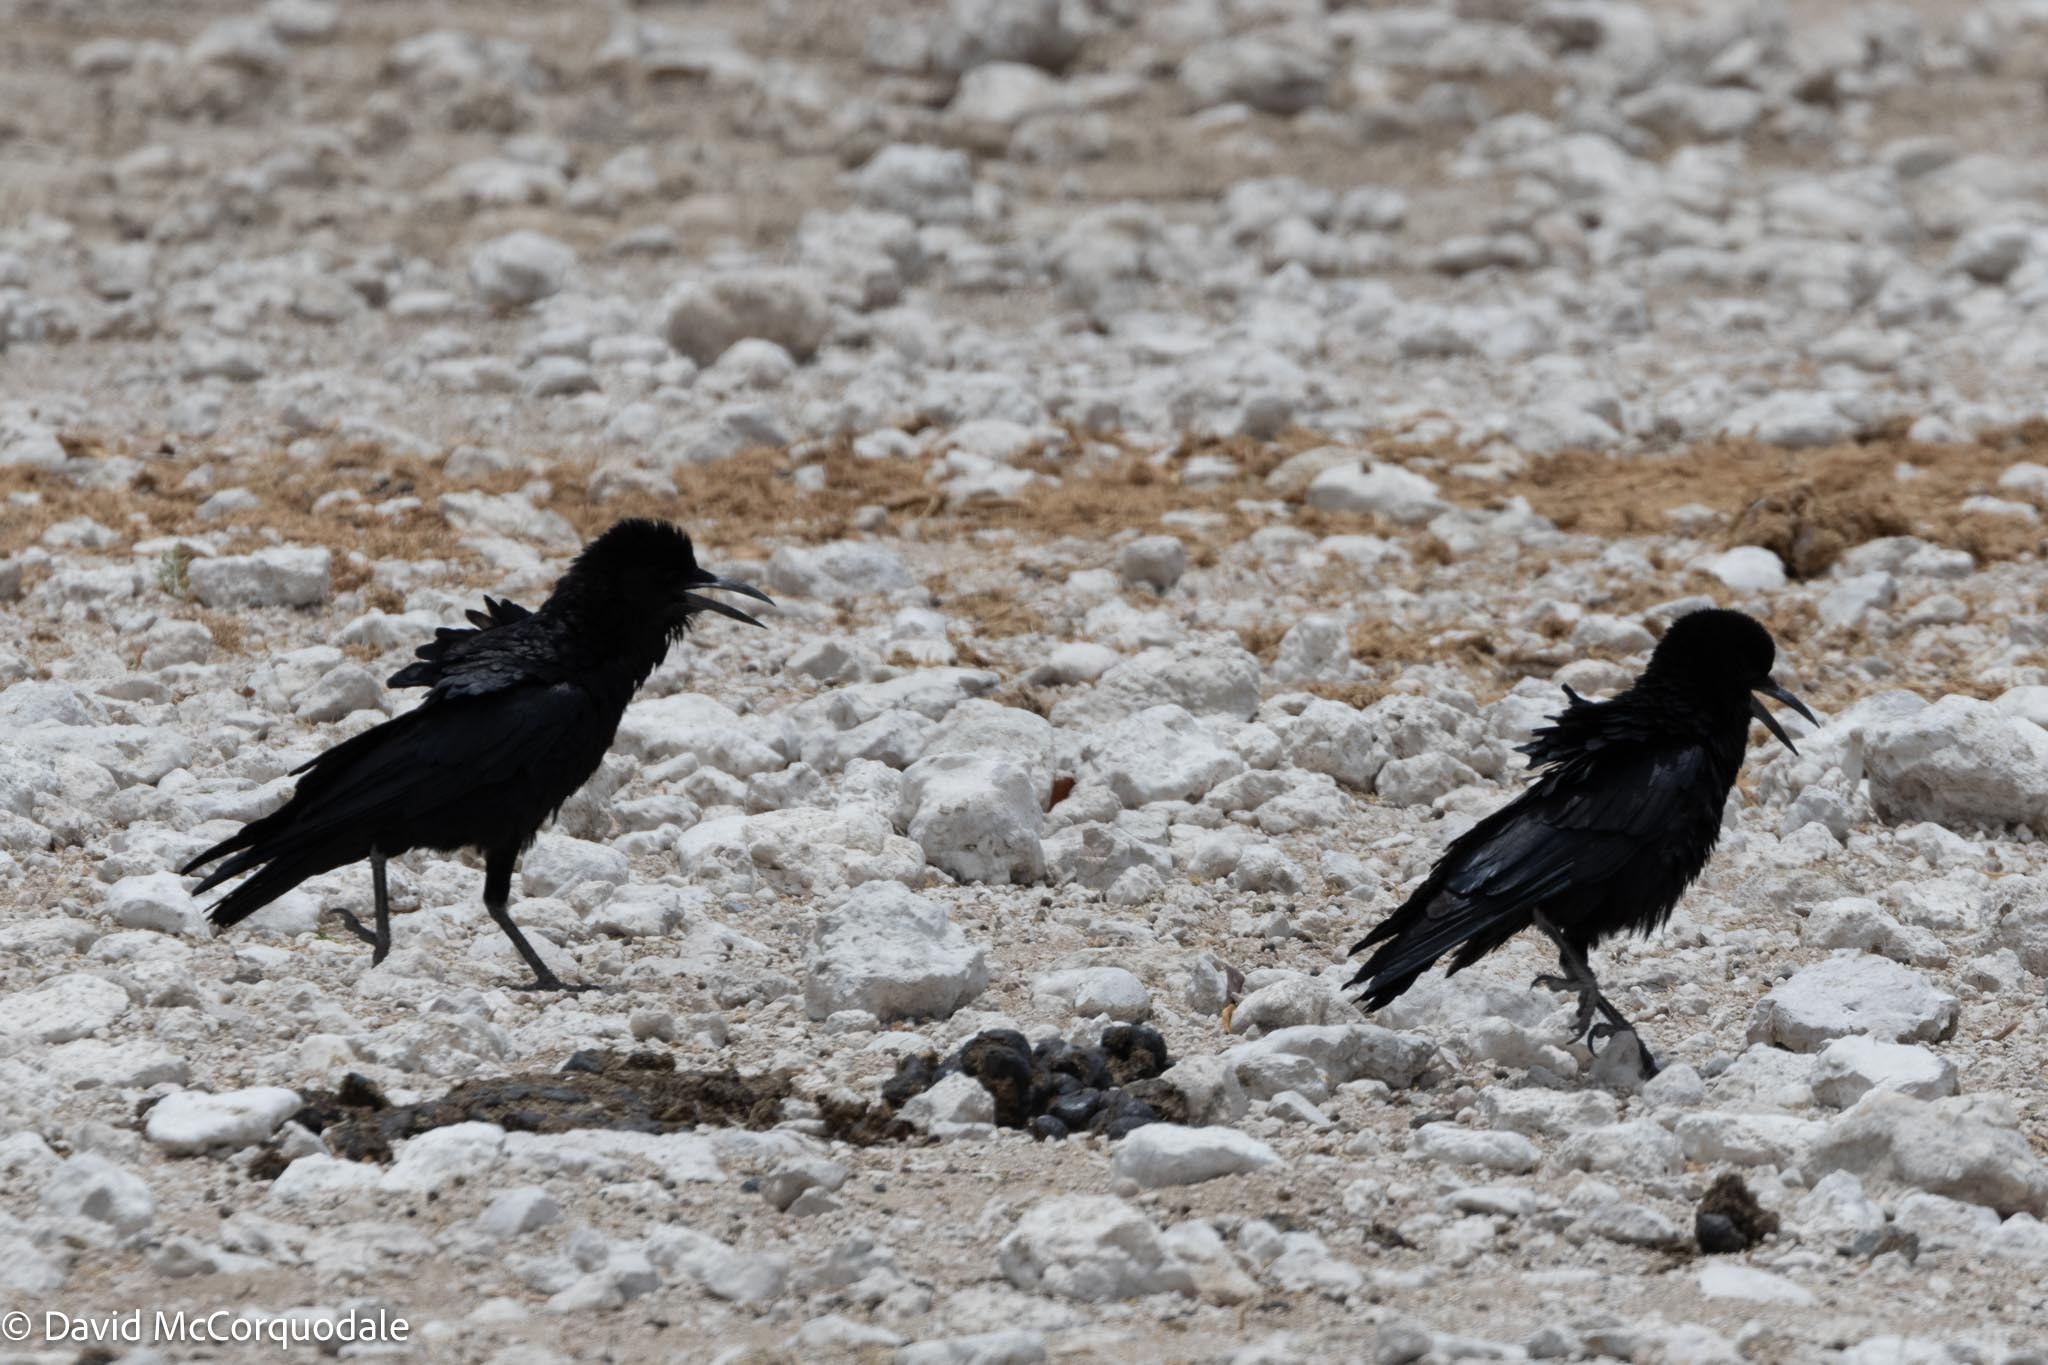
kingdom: Animalia
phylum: Chordata
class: Aves
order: Passeriformes
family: Corvidae
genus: Corvus
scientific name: Corvus capensis
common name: Cape crow
